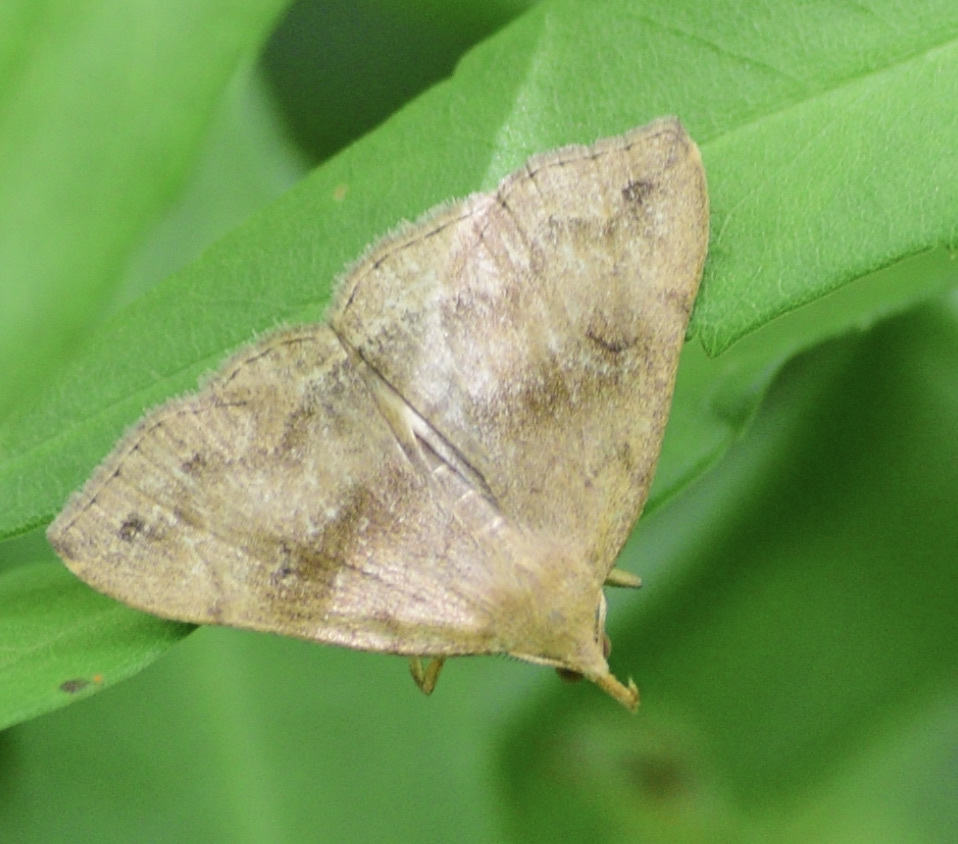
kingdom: Animalia
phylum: Arthropoda
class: Insecta
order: Lepidoptera
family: Erebidae
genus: Phalaenostola
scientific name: Phalaenostola eumelusalis
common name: Dark phalaenostola moth
